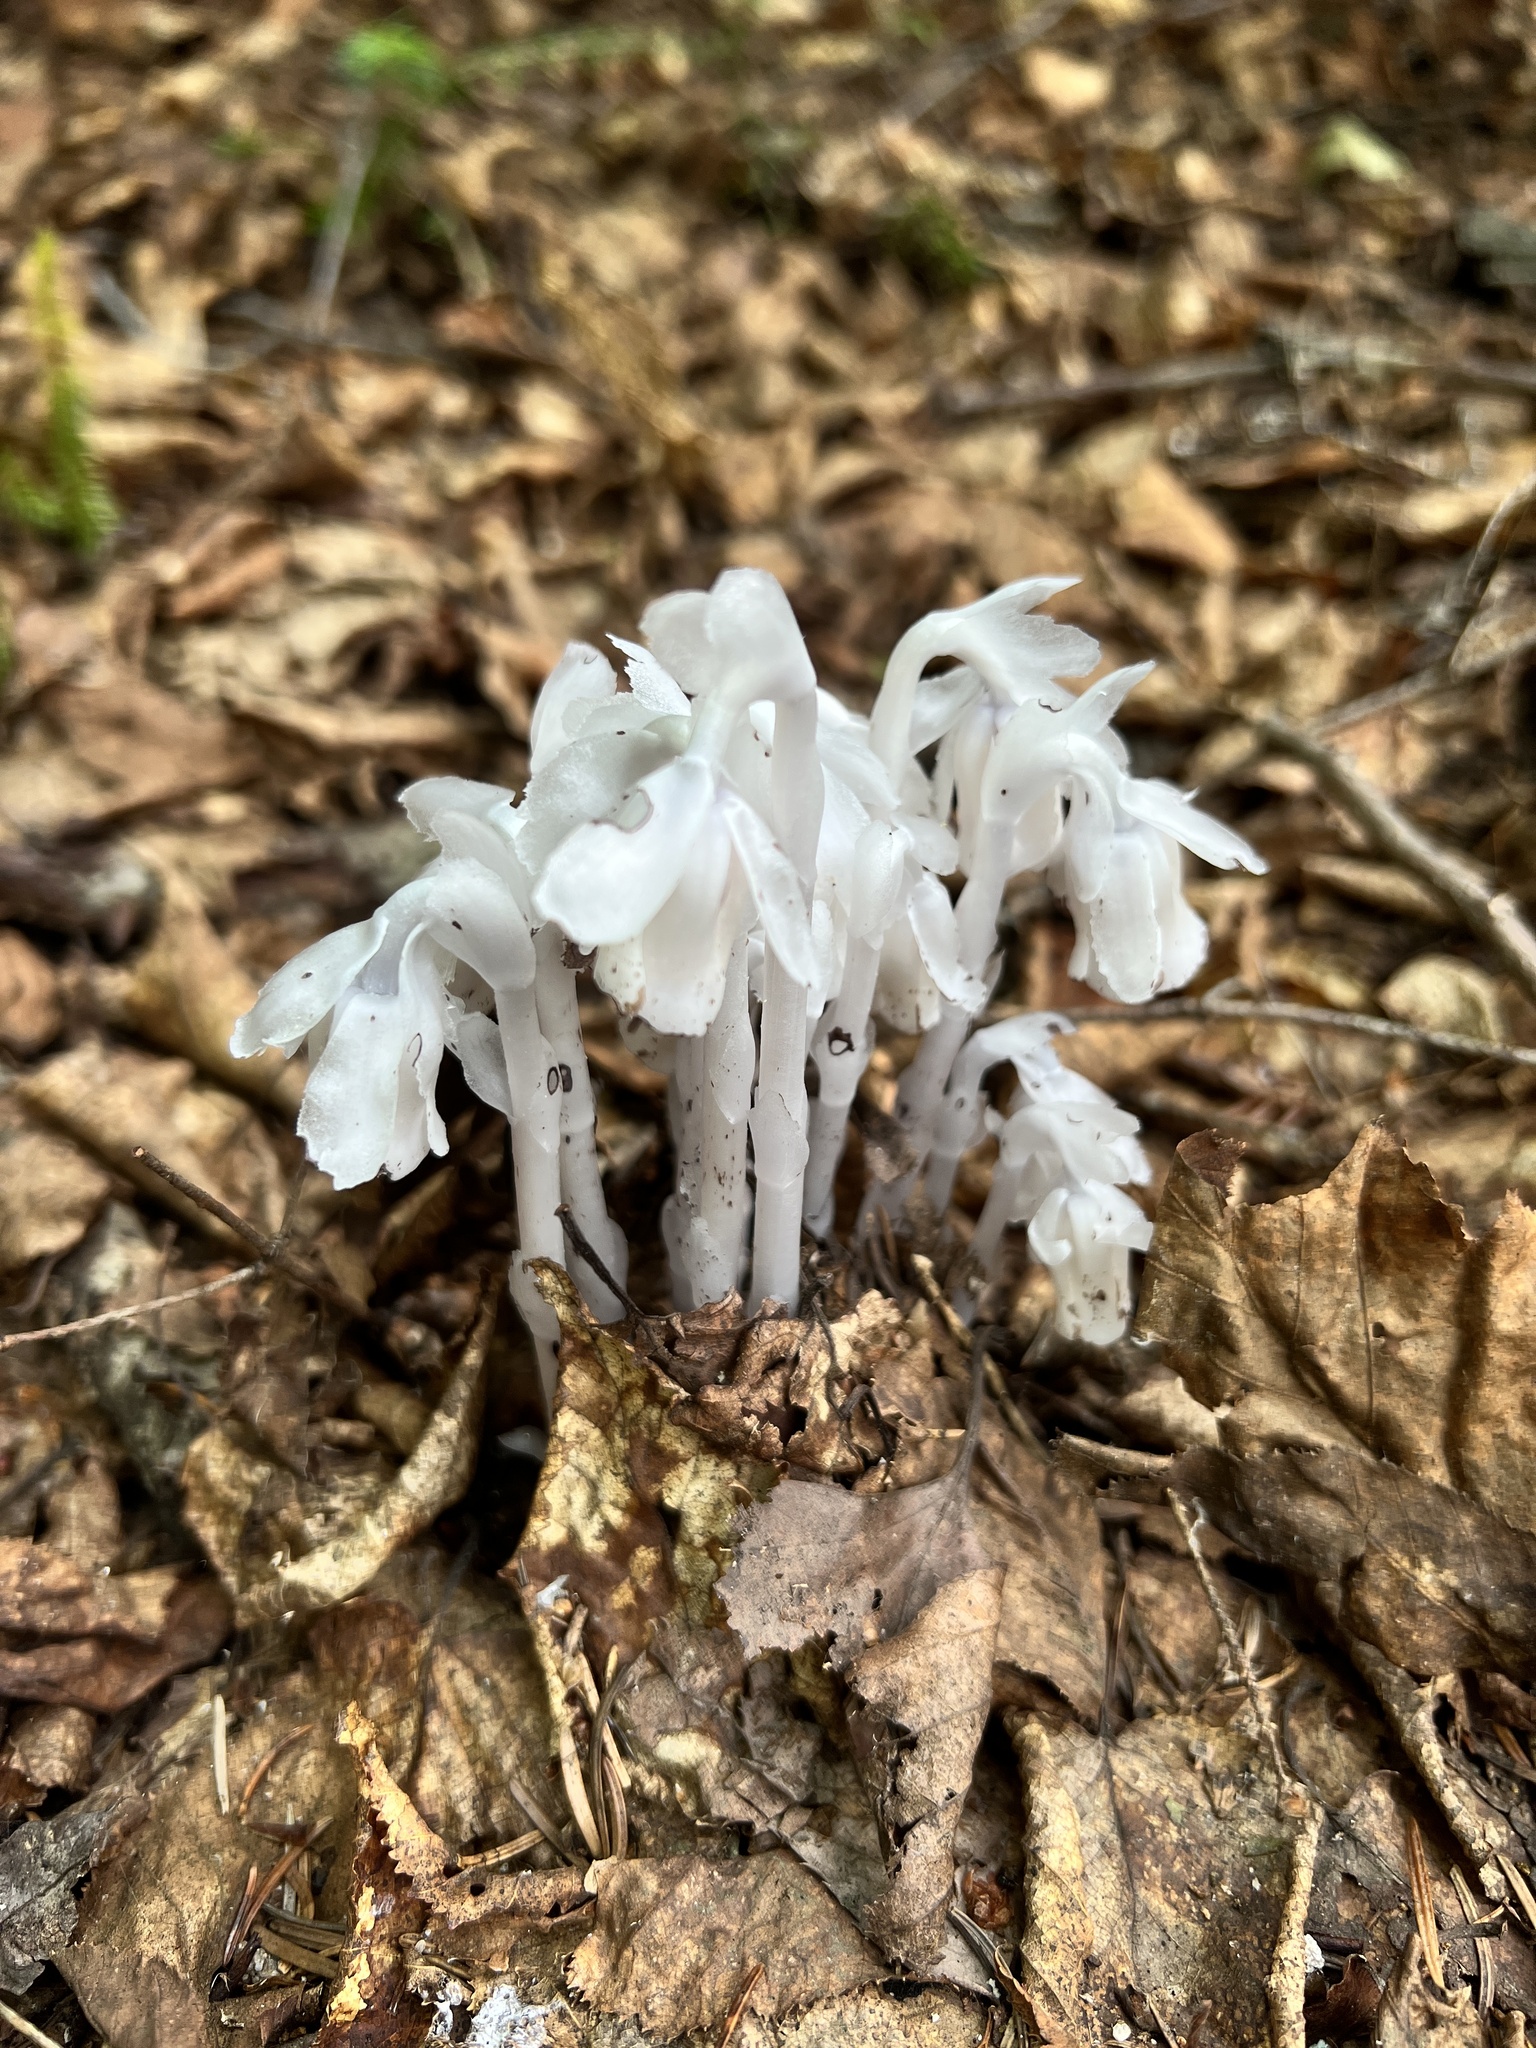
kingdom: Plantae
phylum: Tracheophyta
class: Magnoliopsida
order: Ericales
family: Ericaceae
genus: Monotropa
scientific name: Monotropa uniflora
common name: Convulsion root
